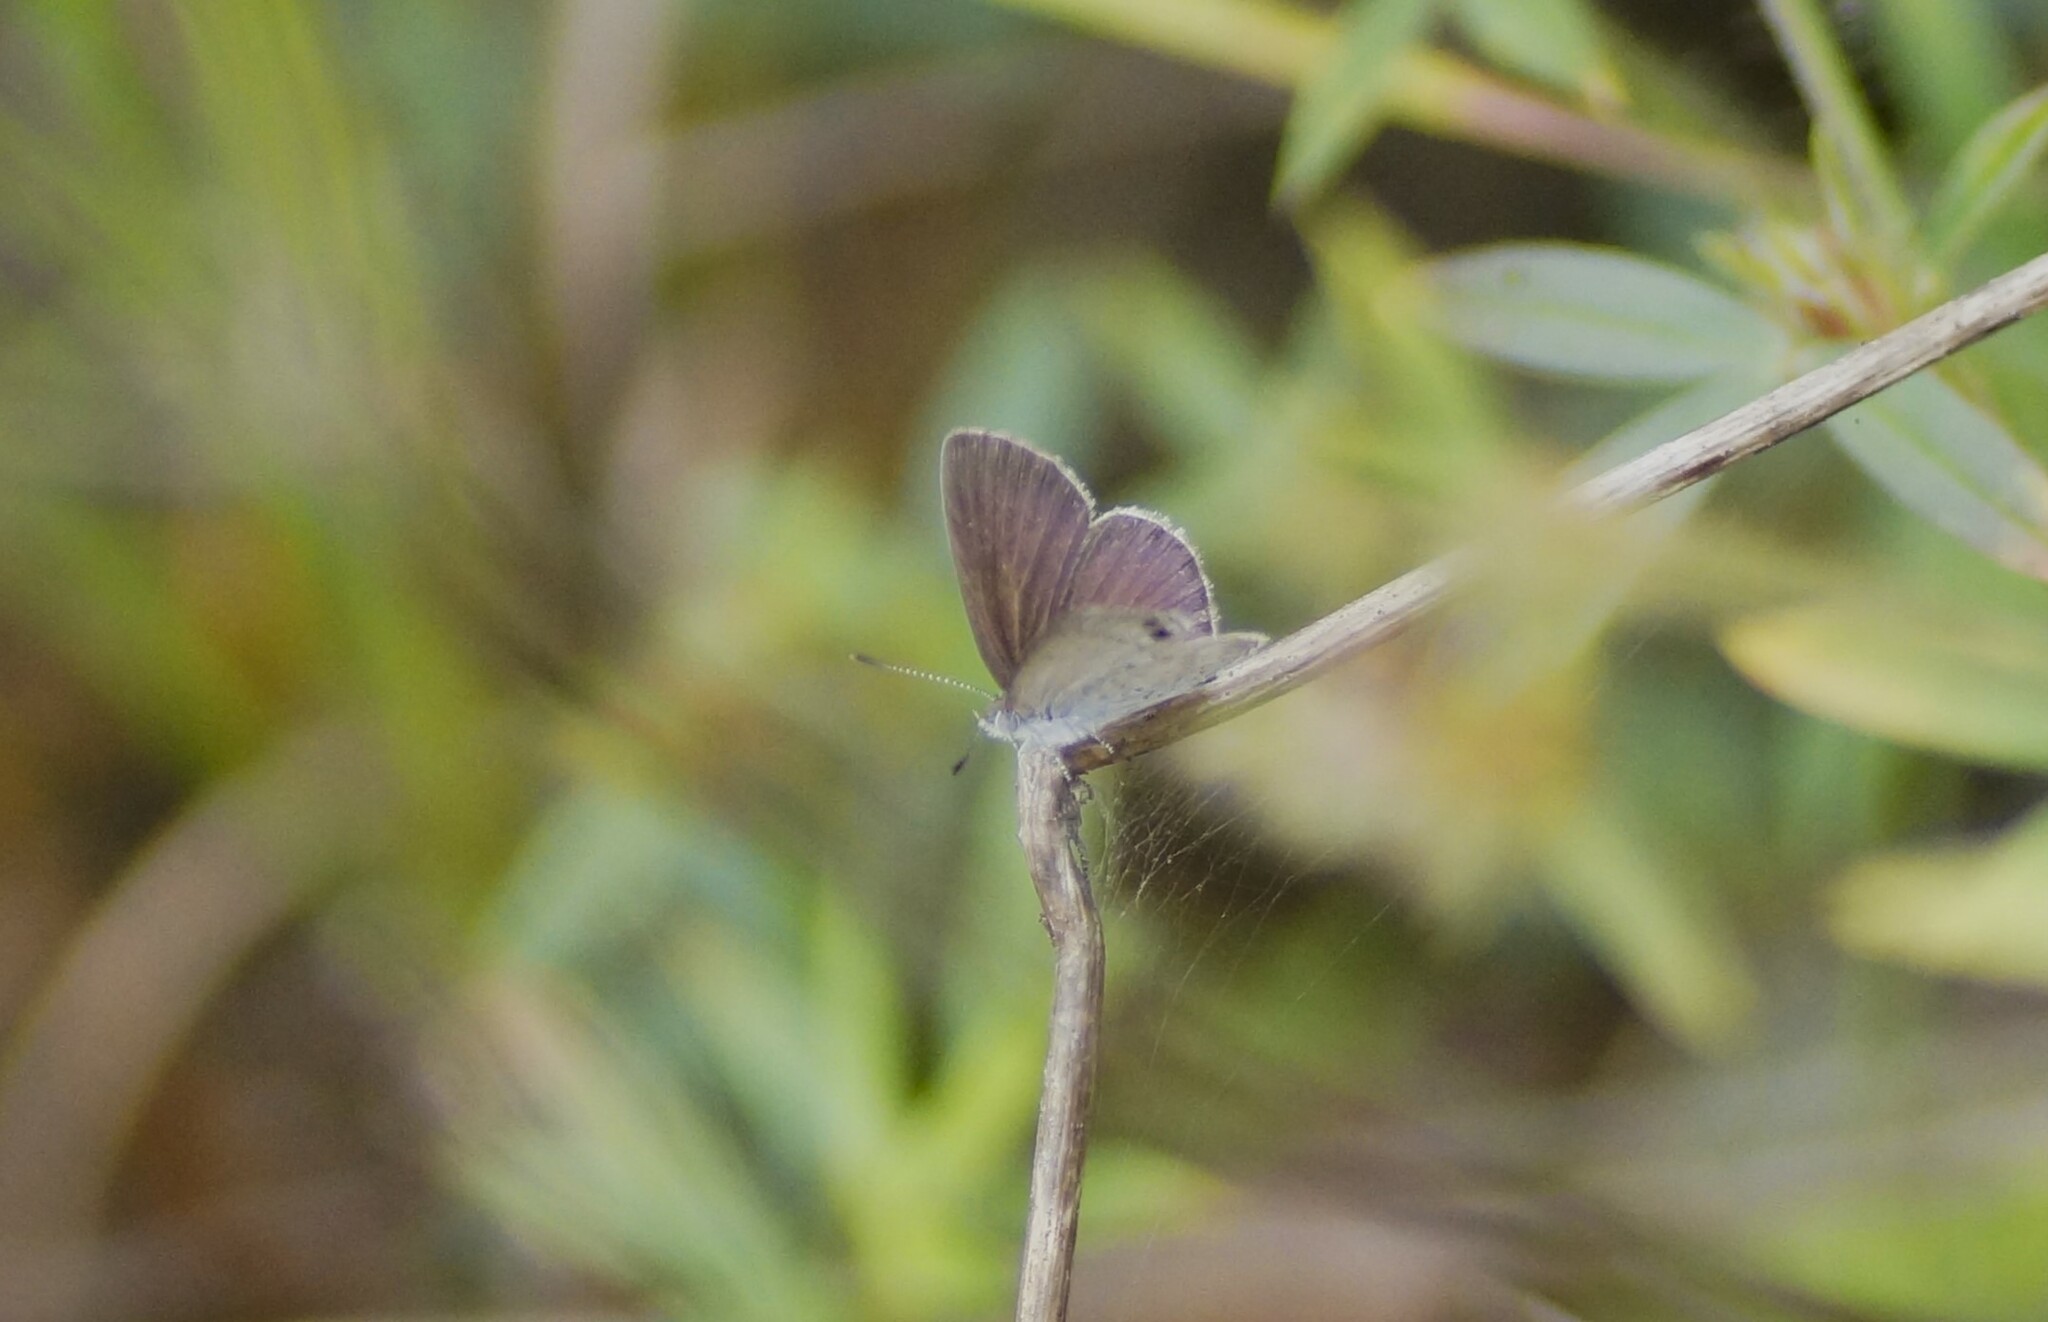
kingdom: Animalia
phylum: Arthropoda
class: Insecta
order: Lepidoptera
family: Lycaenidae
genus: Candalides
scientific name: Candalides
